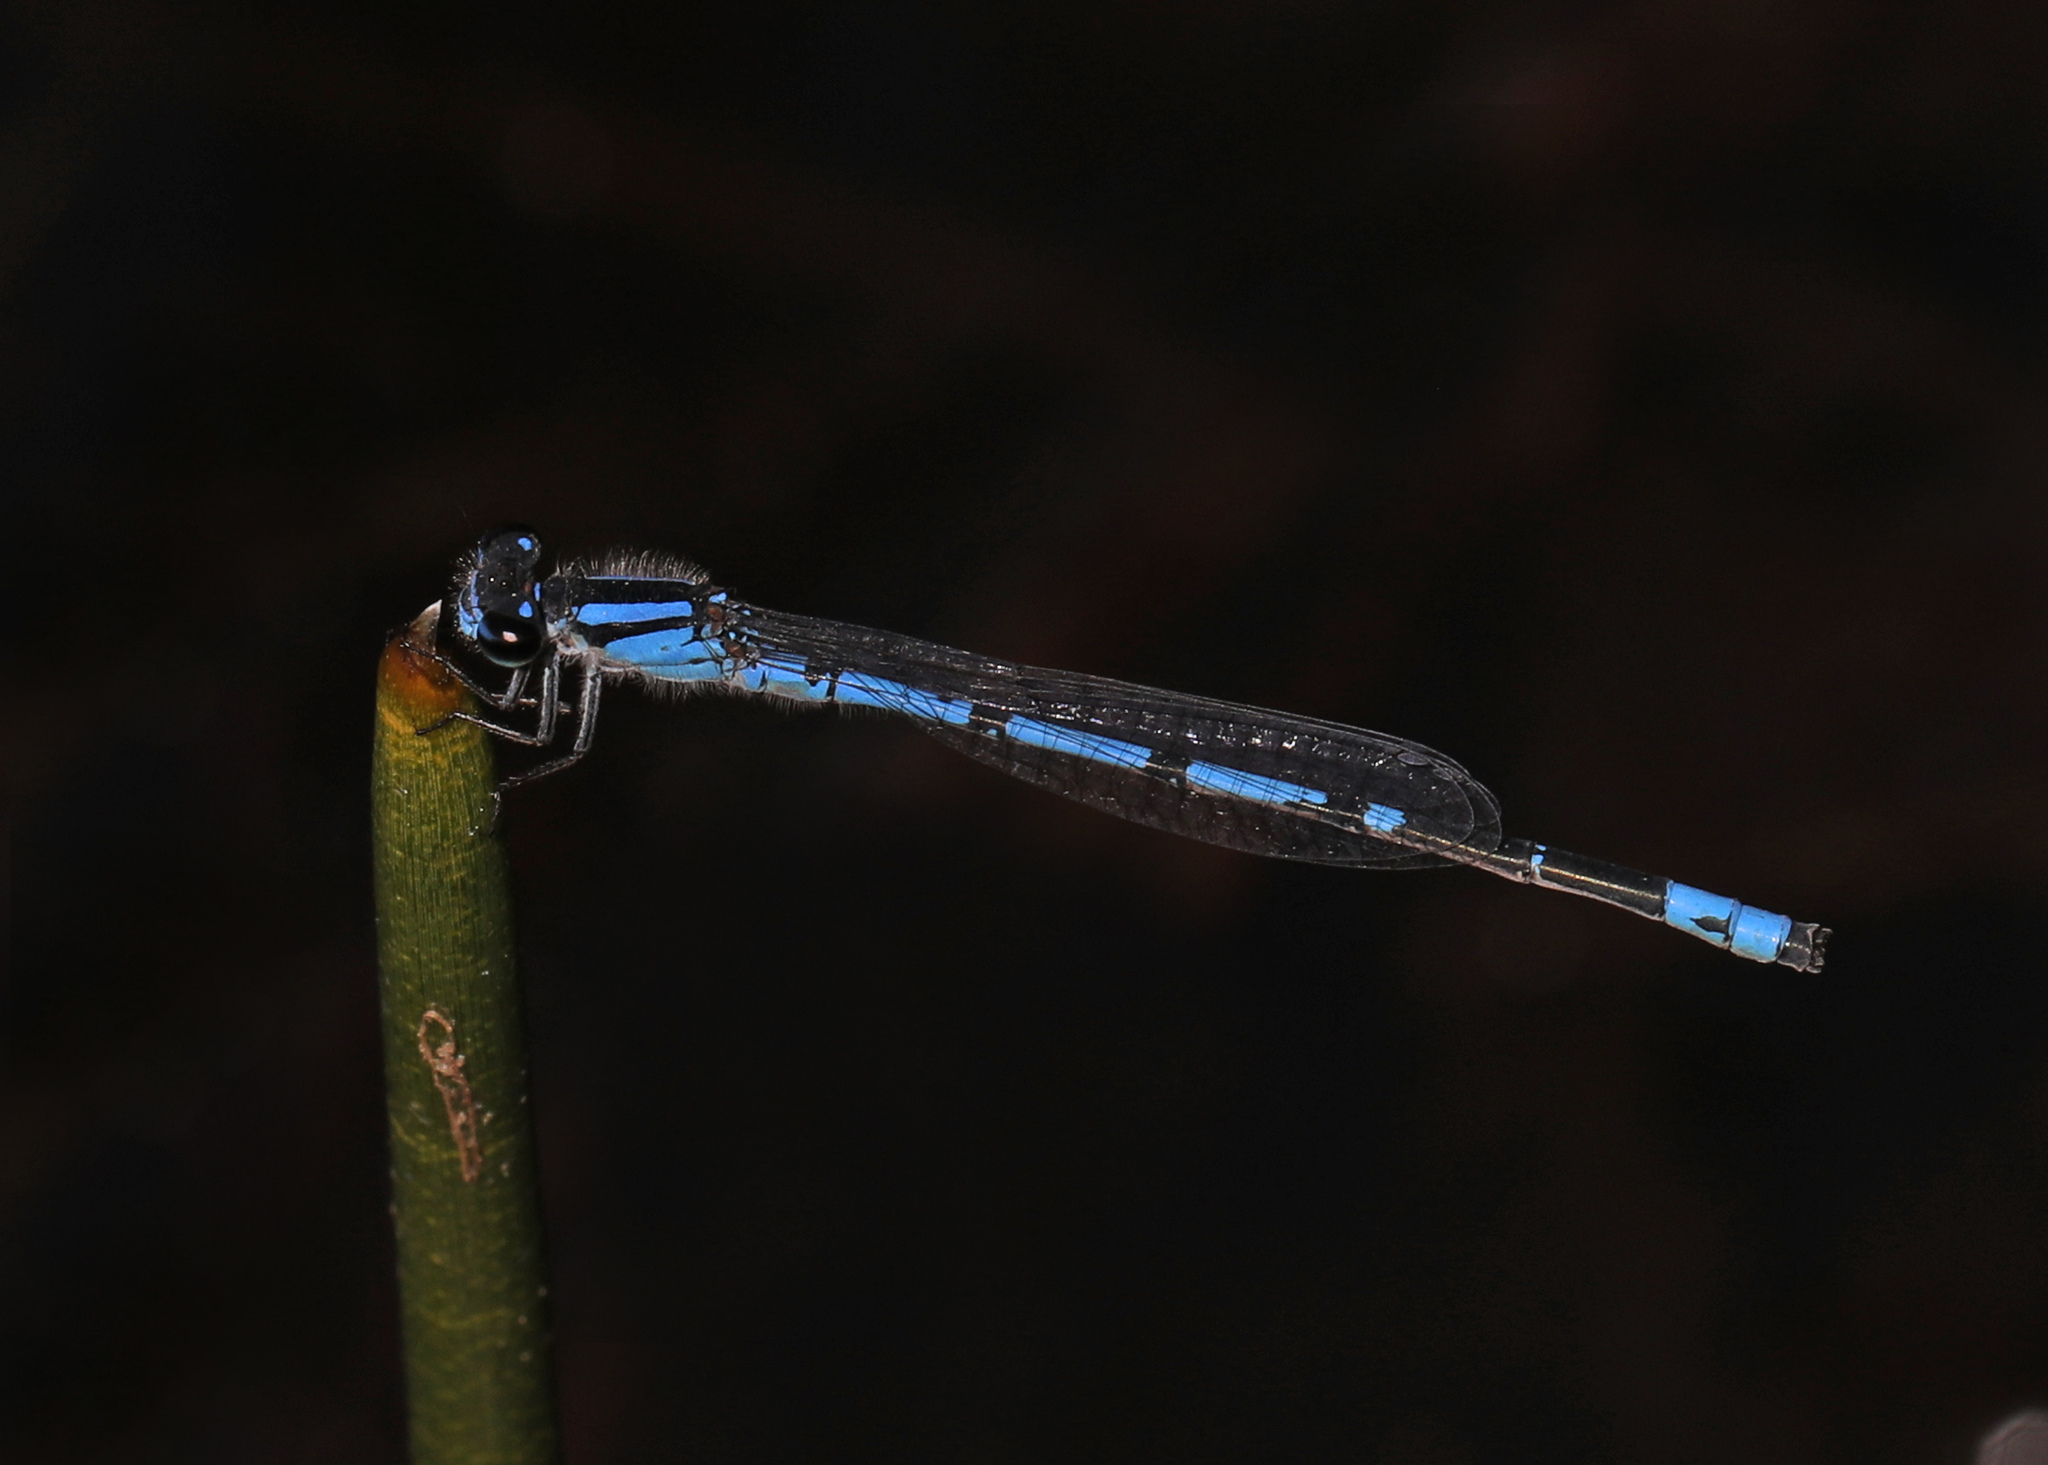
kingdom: Animalia
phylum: Arthropoda
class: Insecta
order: Odonata
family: Coenagrionidae
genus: Enallagma
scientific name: Enallagma davisi
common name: Sandhill bluet
